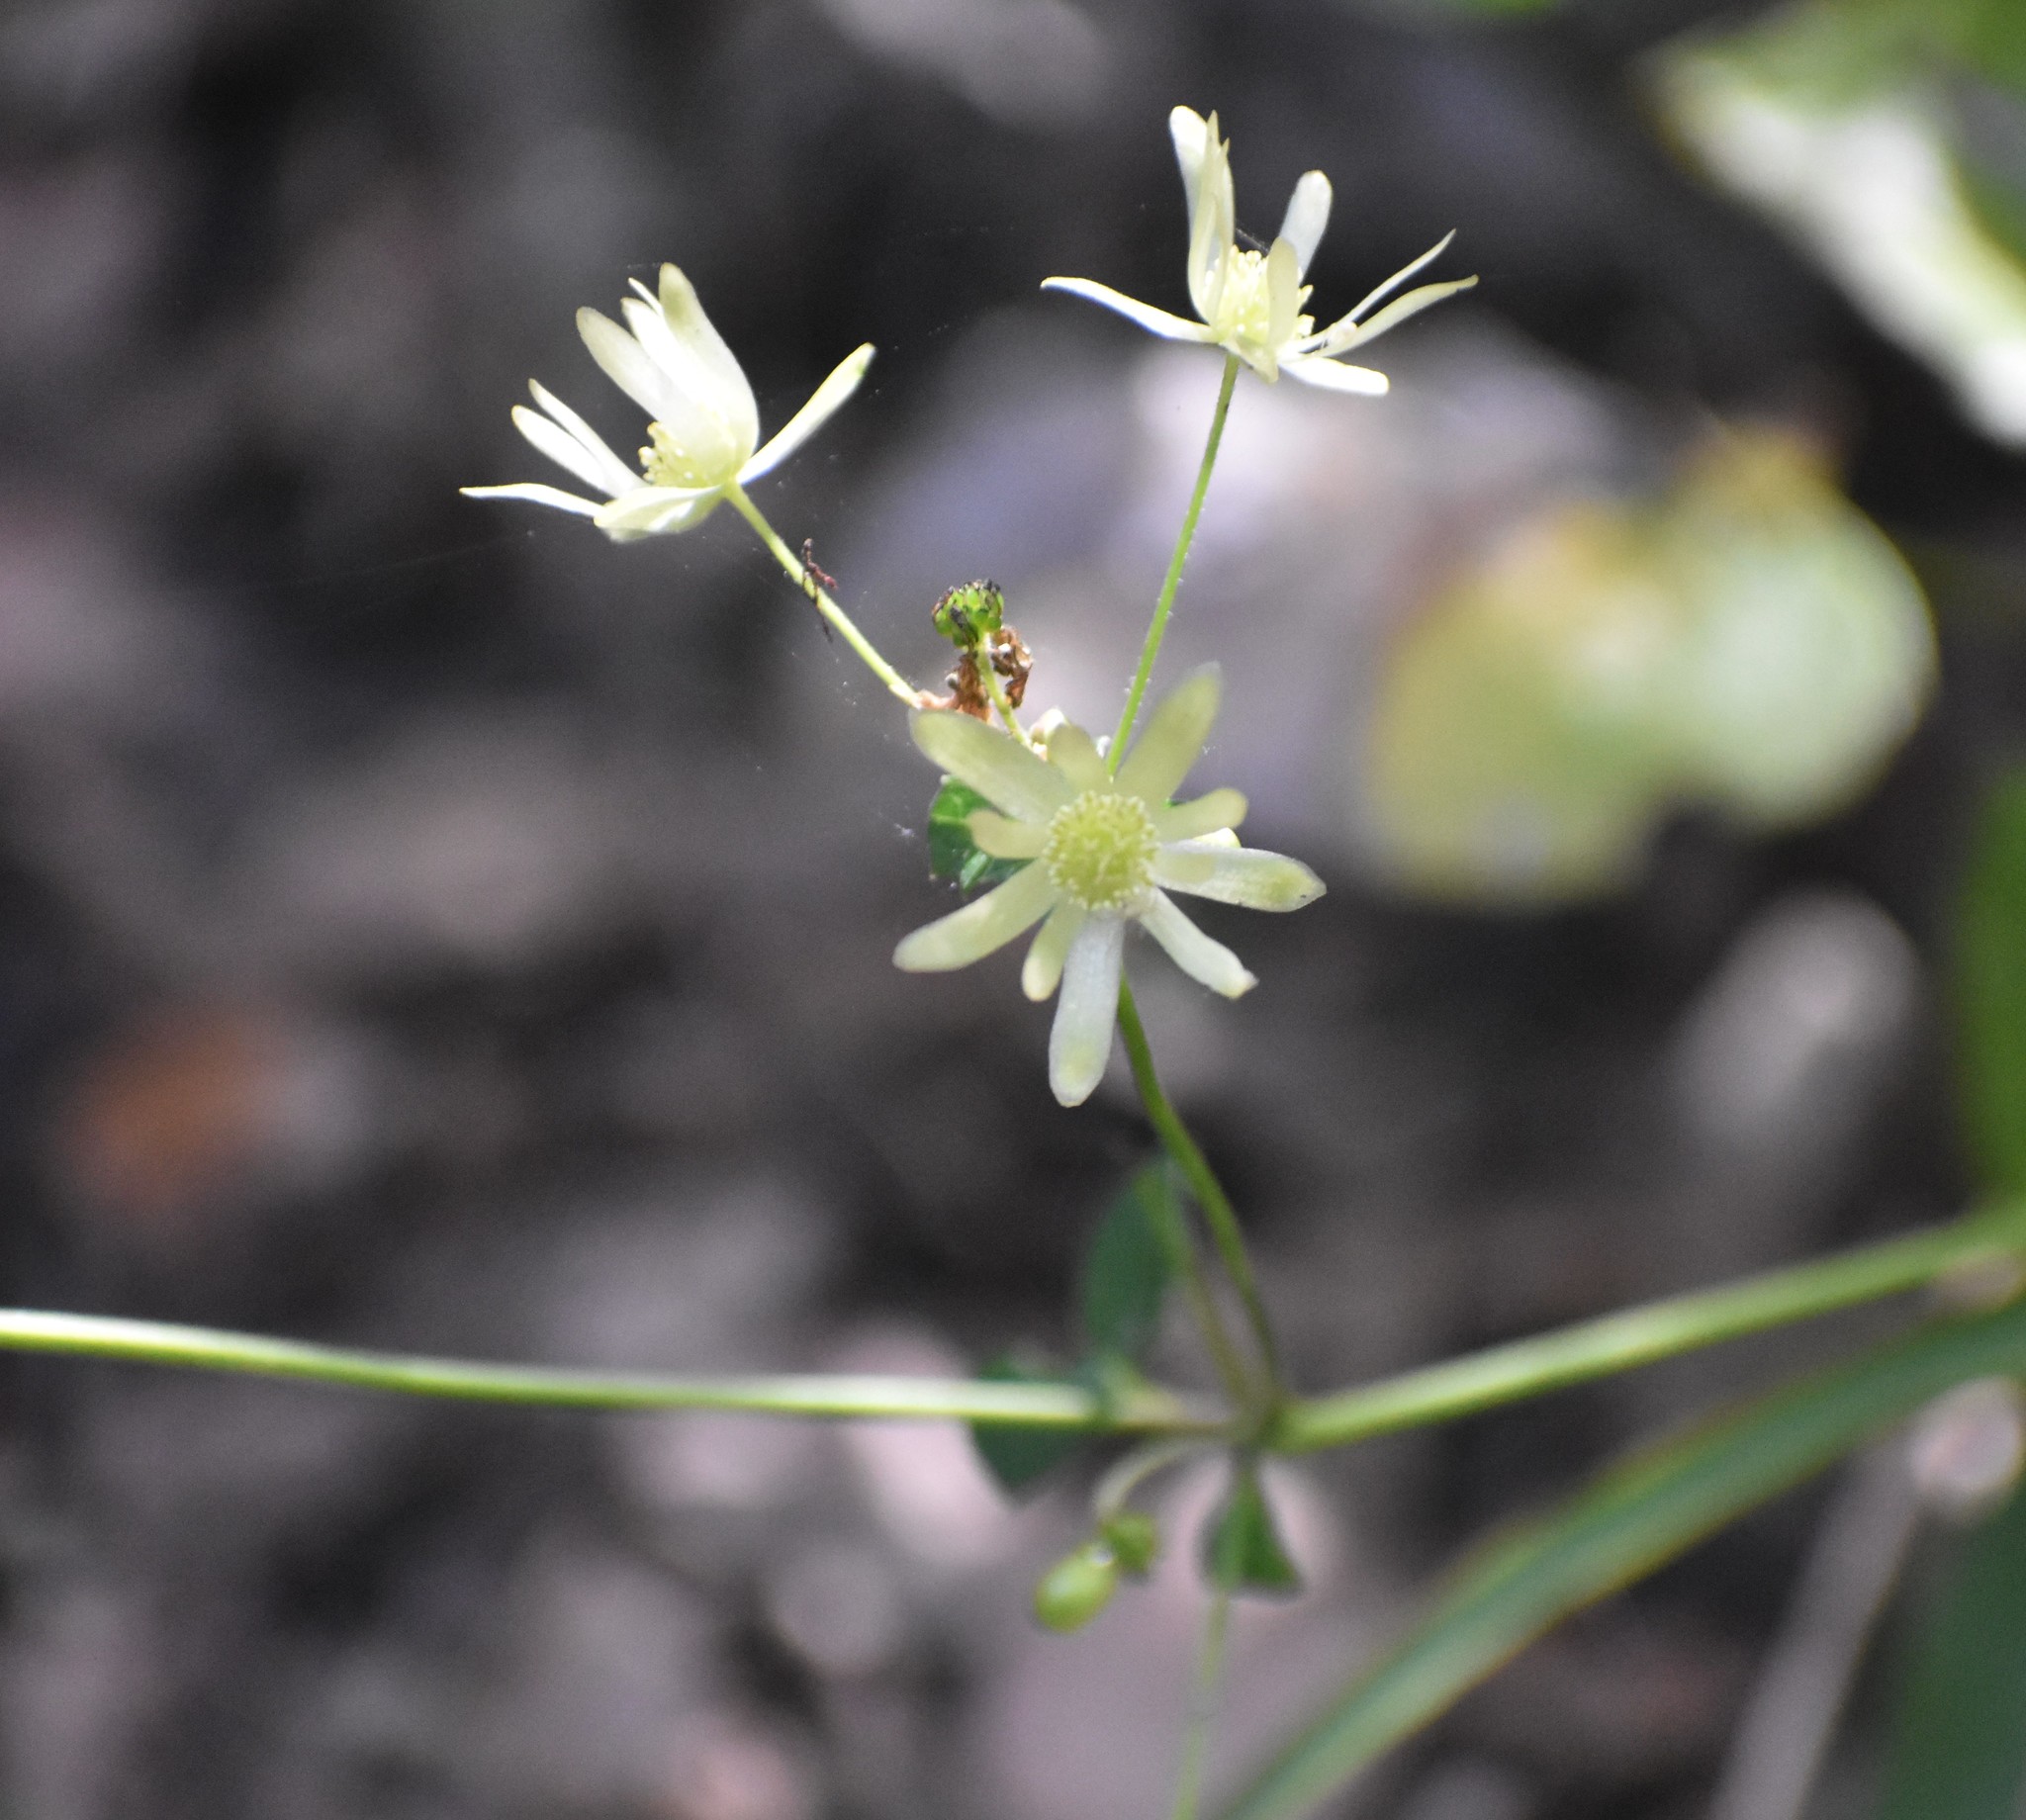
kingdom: Plantae
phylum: Tracheophyta
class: Magnoliopsida
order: Ranunculales
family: Ranunculaceae
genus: Knowltonia
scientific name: Knowltonia vesicatoria
